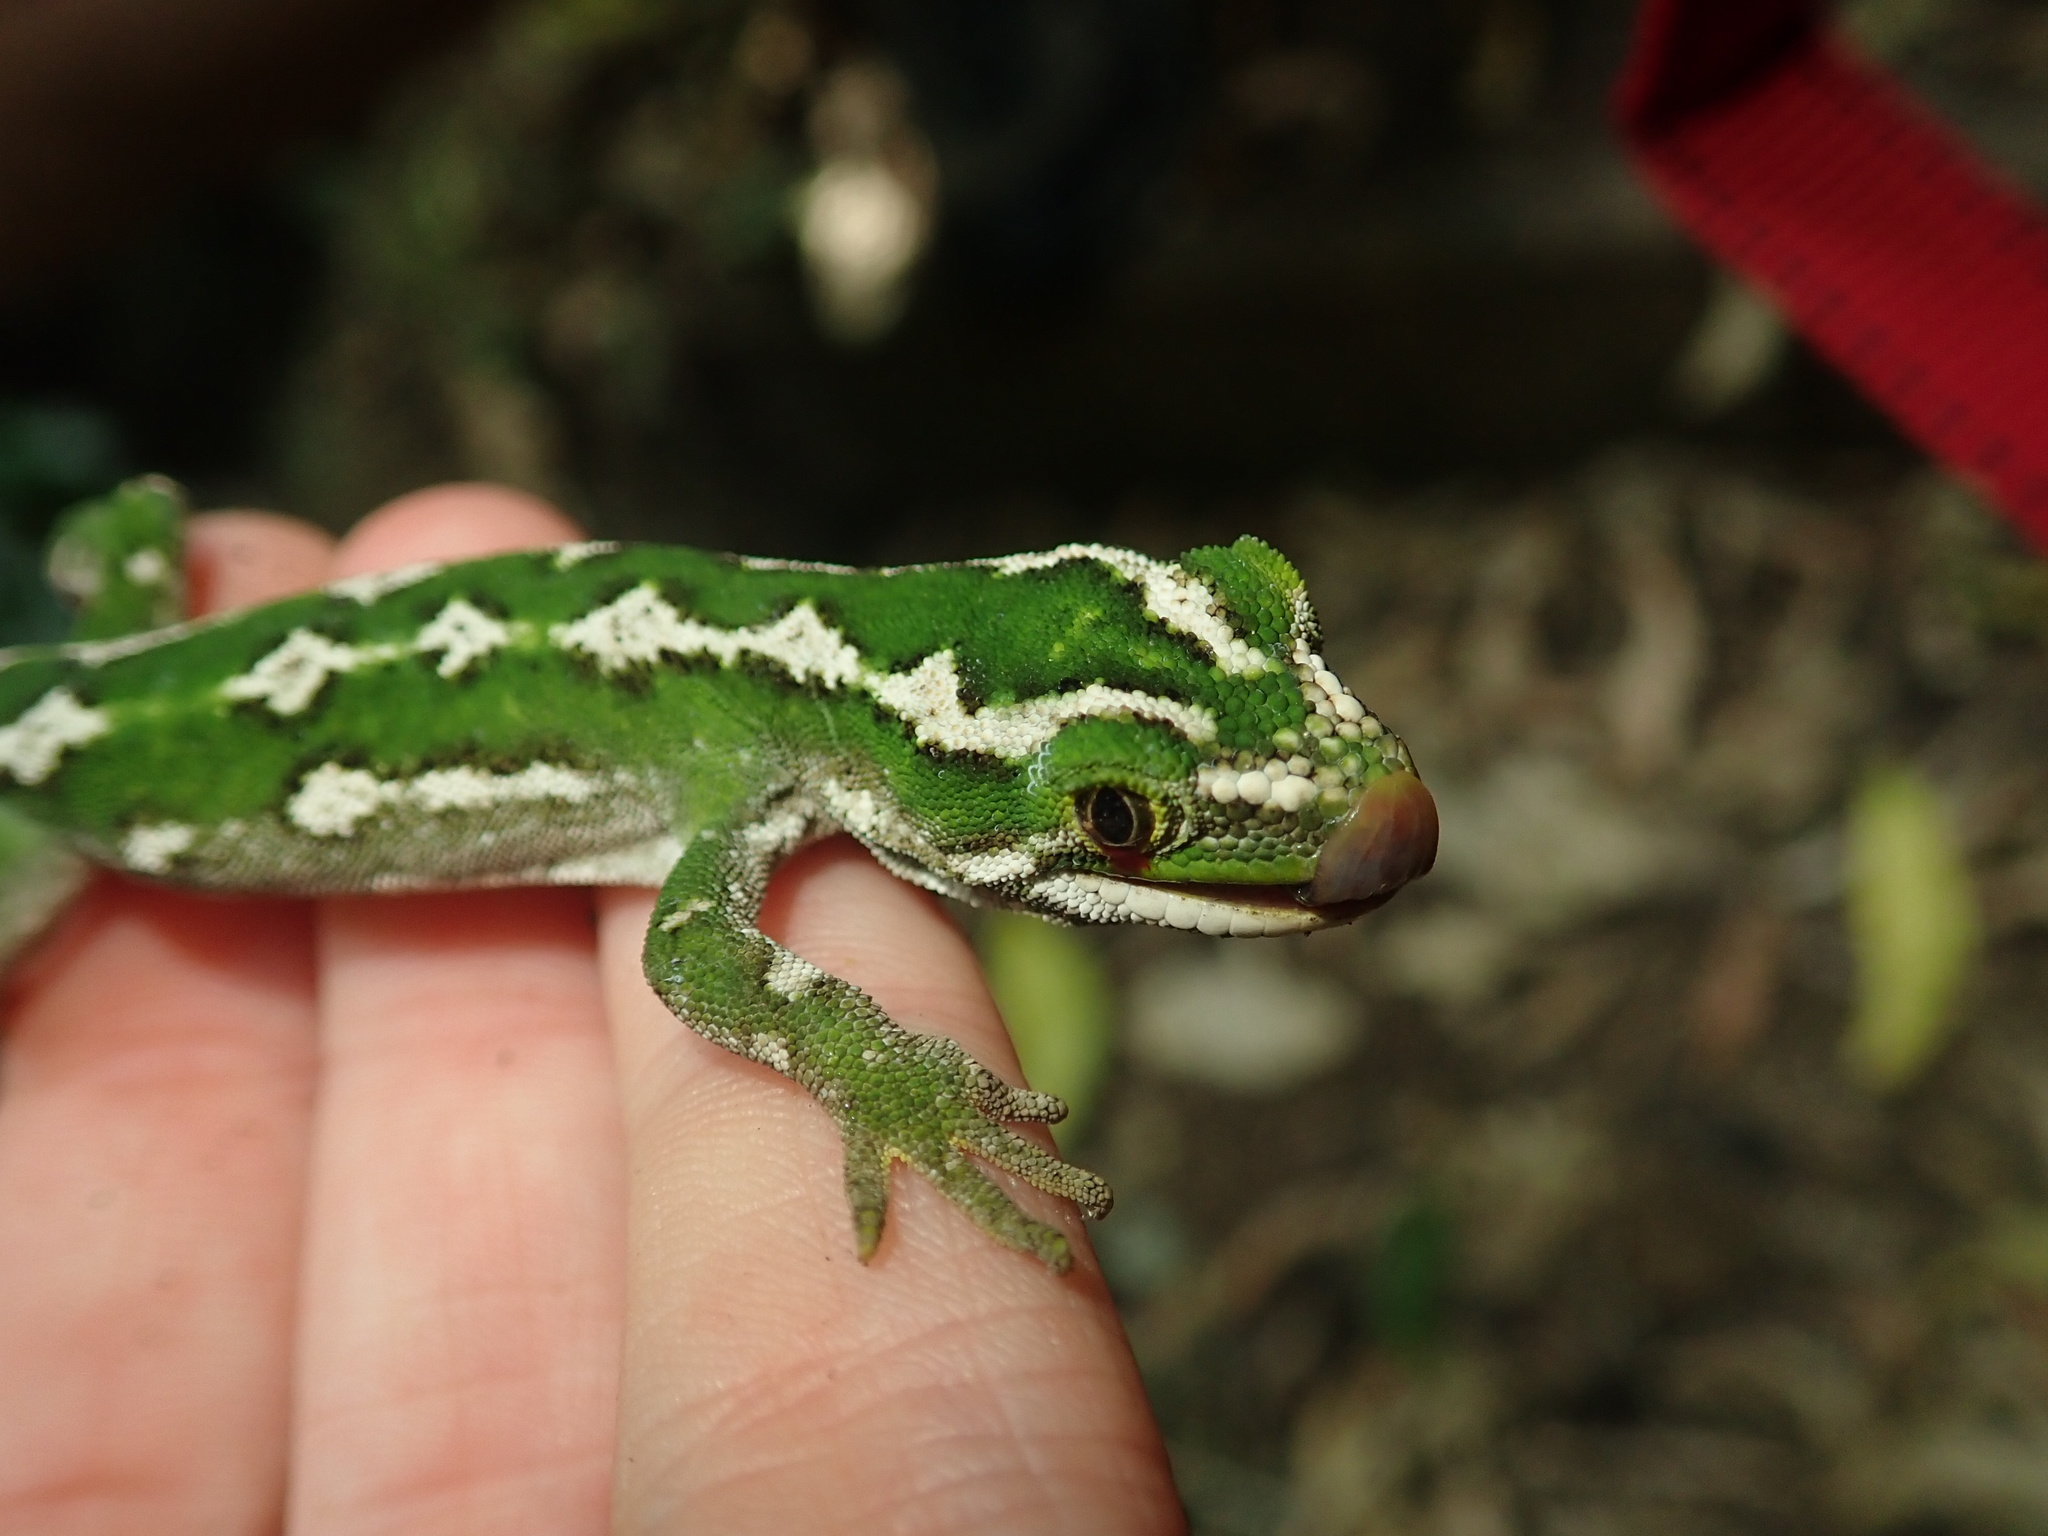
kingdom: Animalia
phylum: Chordata
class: Squamata
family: Diplodactylidae
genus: Naultinus
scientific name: Naultinus gemmeus
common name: Jewelled gecko
